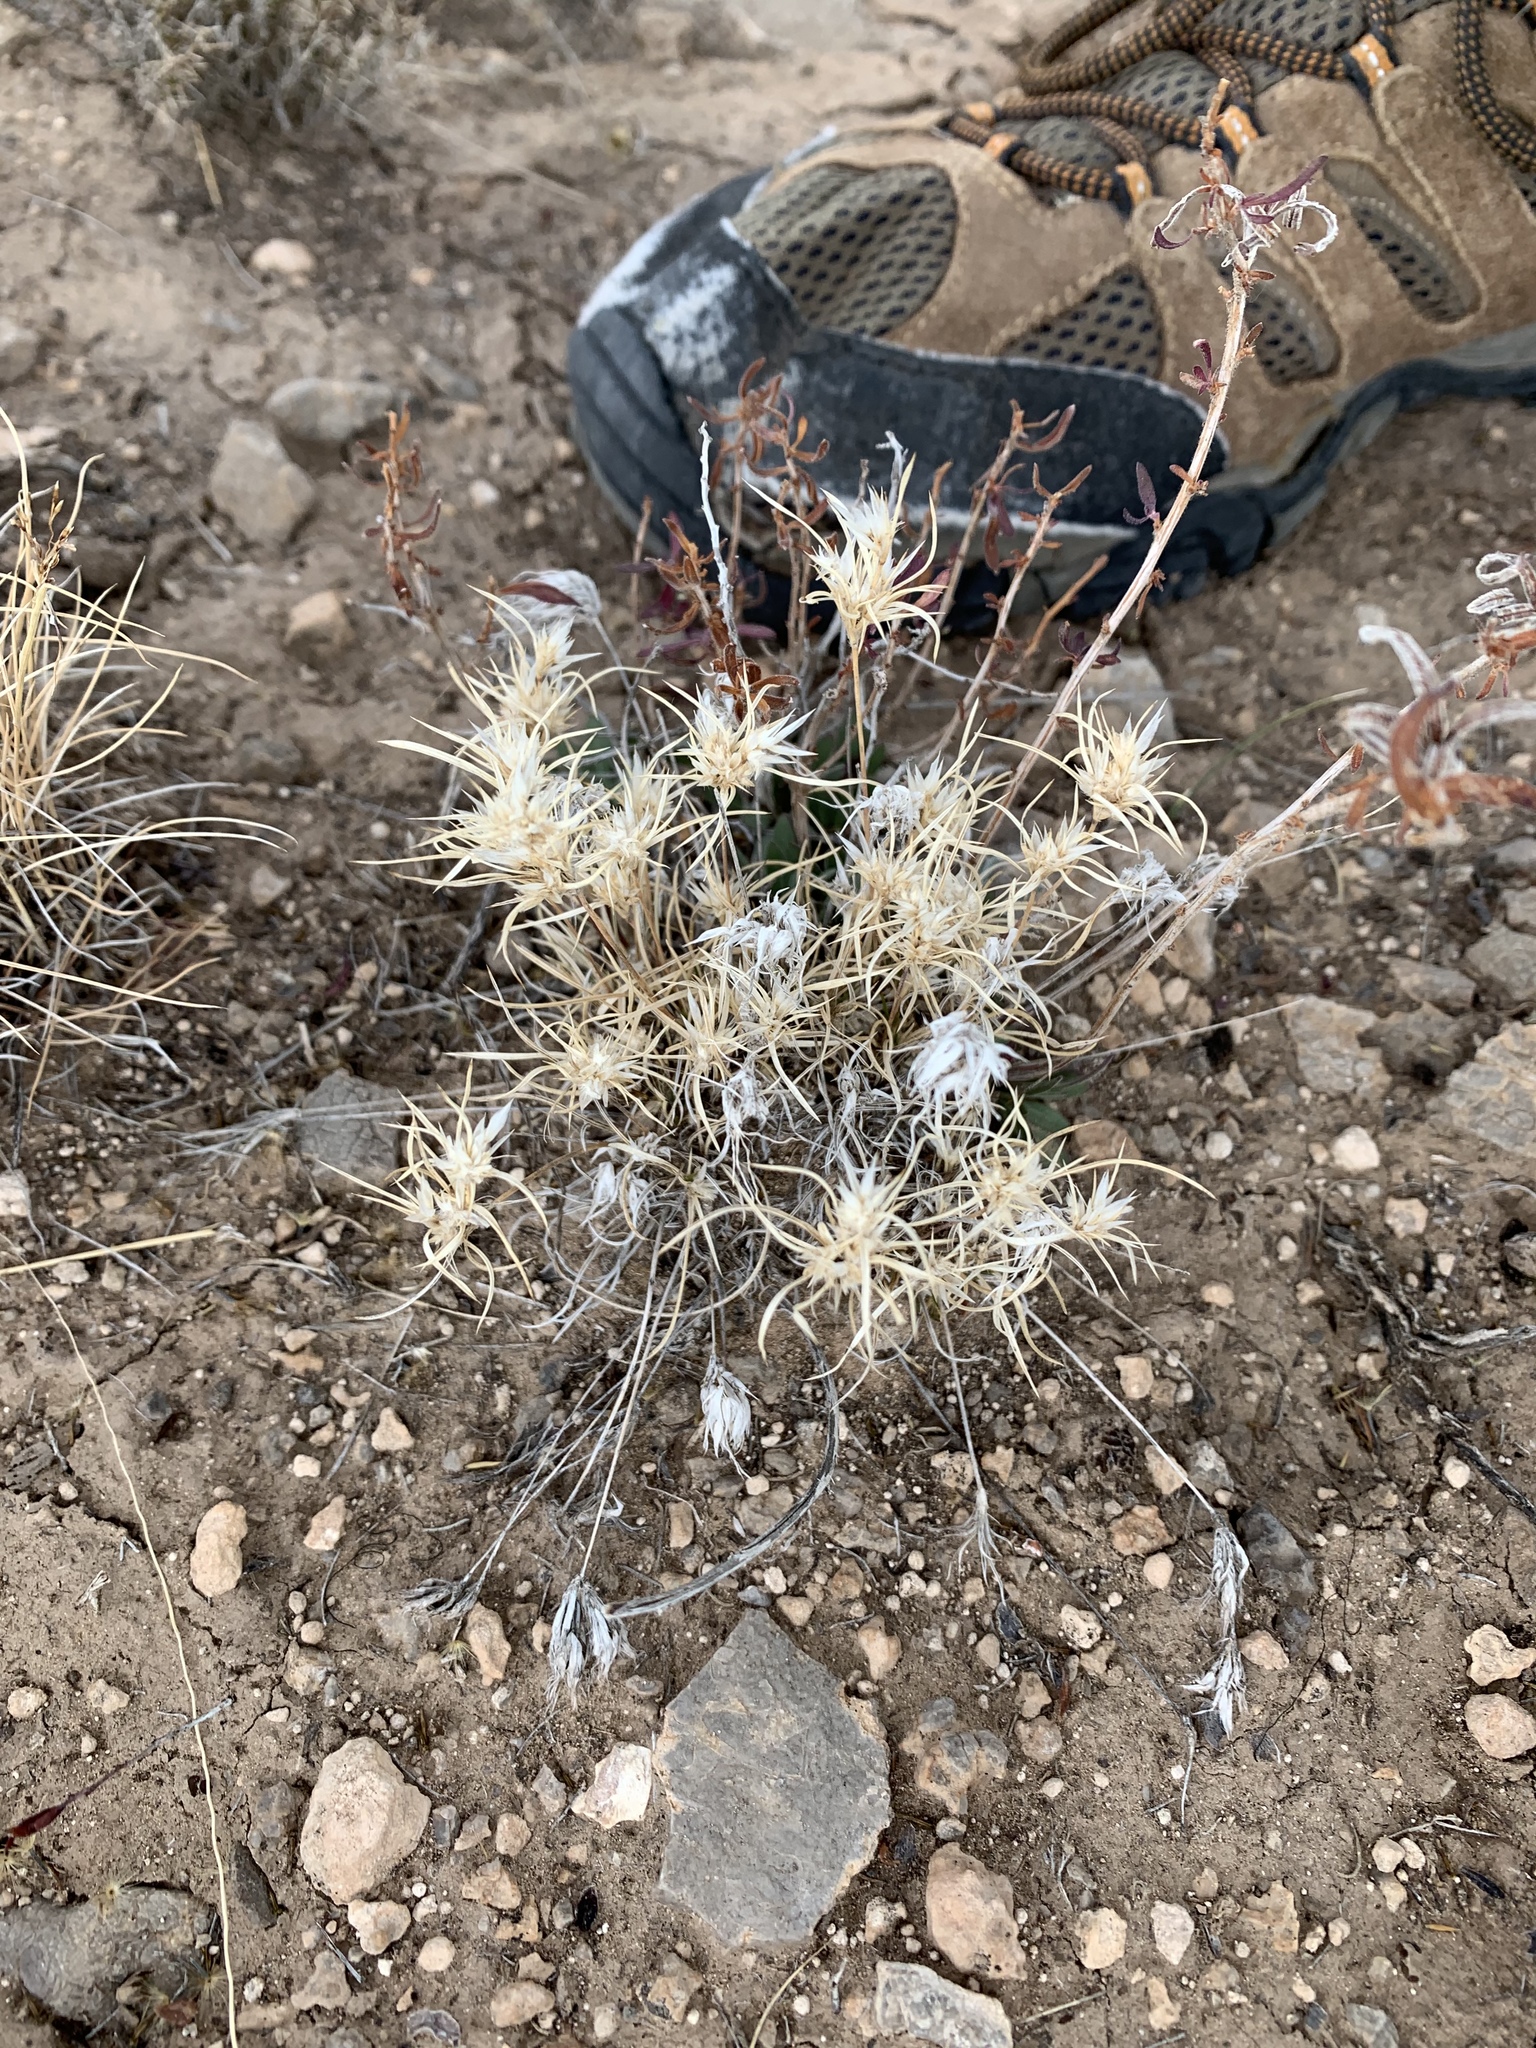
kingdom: Plantae
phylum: Tracheophyta
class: Liliopsida
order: Poales
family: Poaceae
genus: Dasyochloa
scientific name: Dasyochloa pulchella
